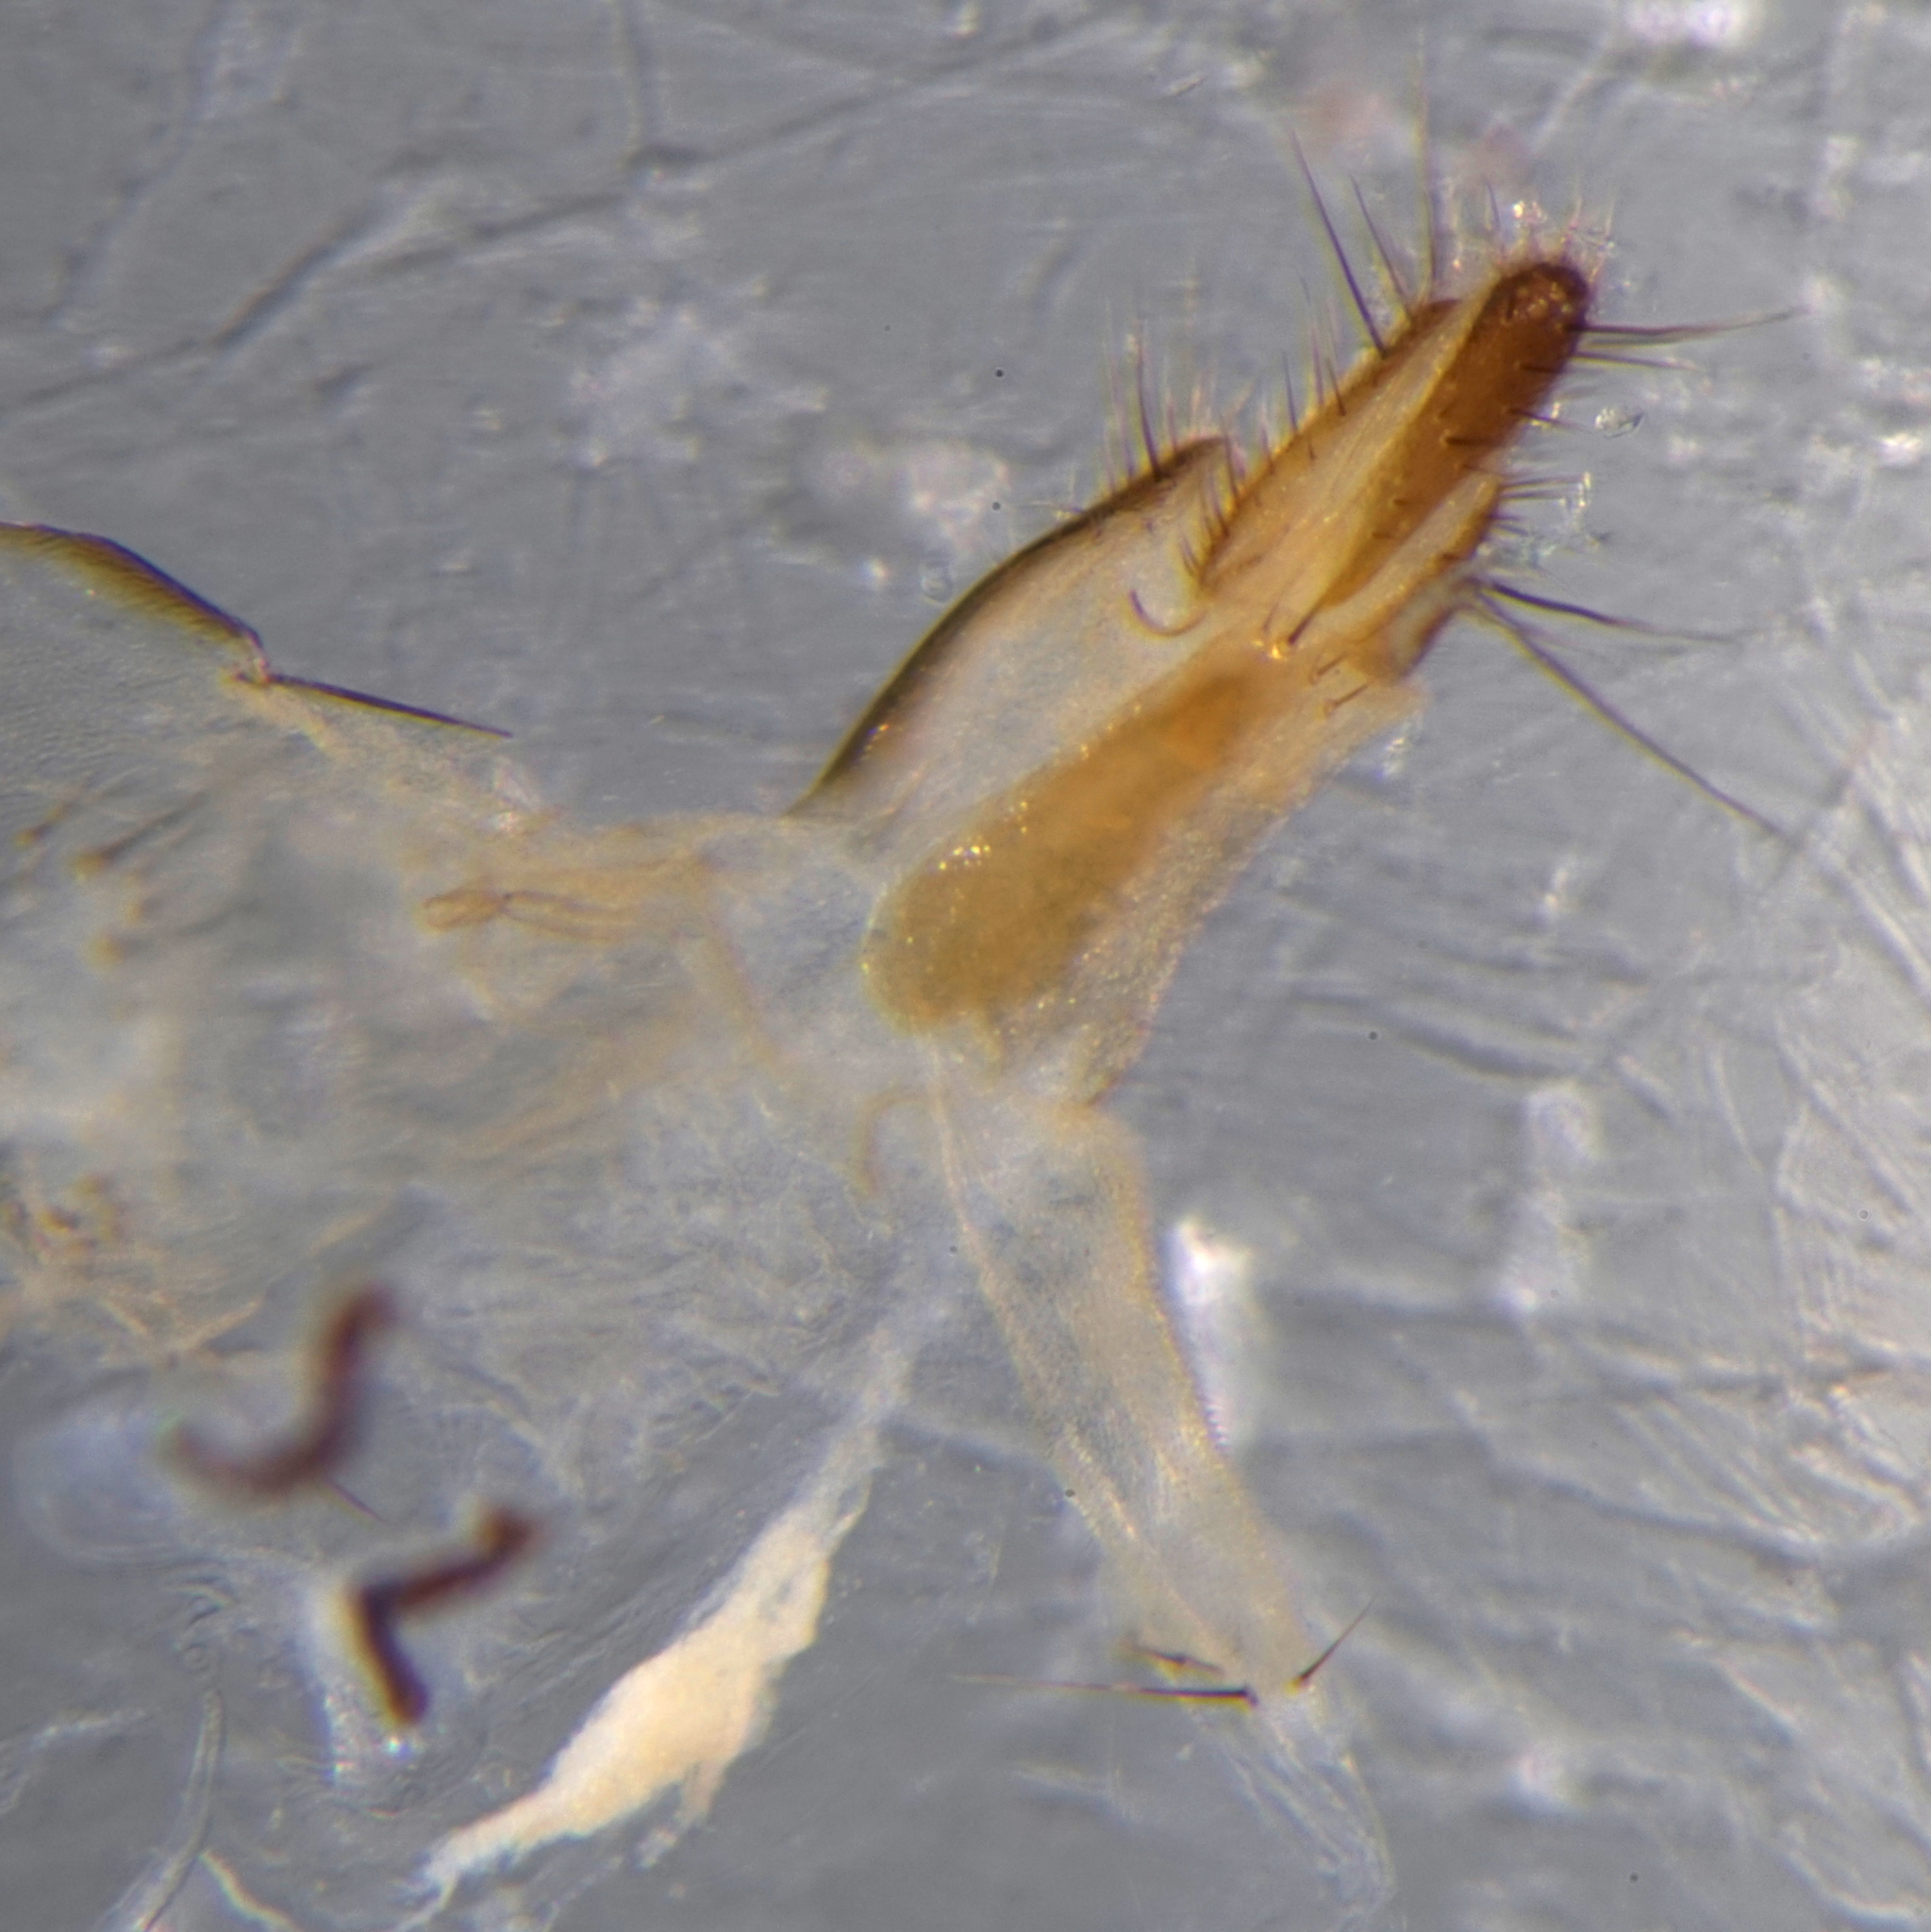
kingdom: Animalia
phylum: Arthropoda
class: Insecta
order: Diptera
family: Polleniidae
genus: Pollenia
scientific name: Pollenia rudis
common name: Awkward clusterfly
